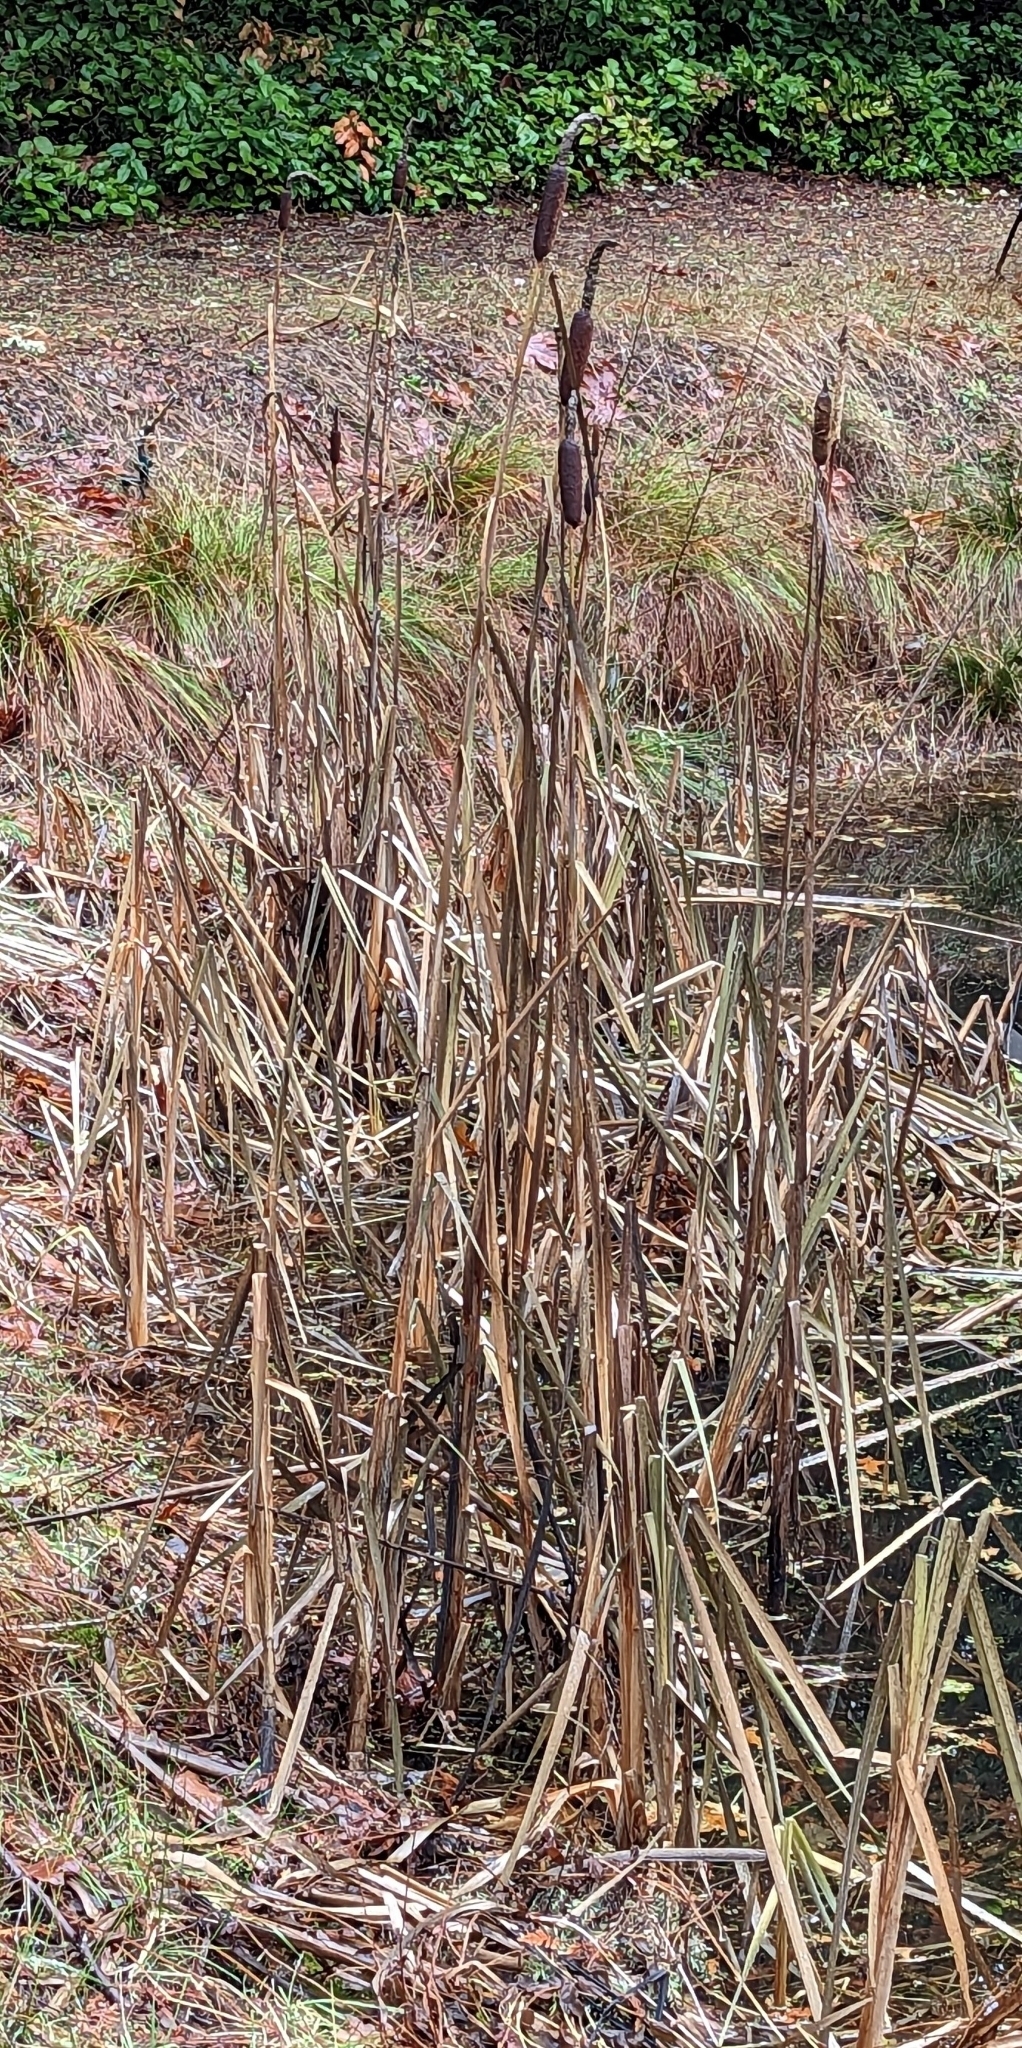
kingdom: Plantae
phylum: Tracheophyta
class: Liliopsida
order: Poales
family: Typhaceae
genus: Typha
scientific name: Typha latifolia
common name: Broadleaf cattail
